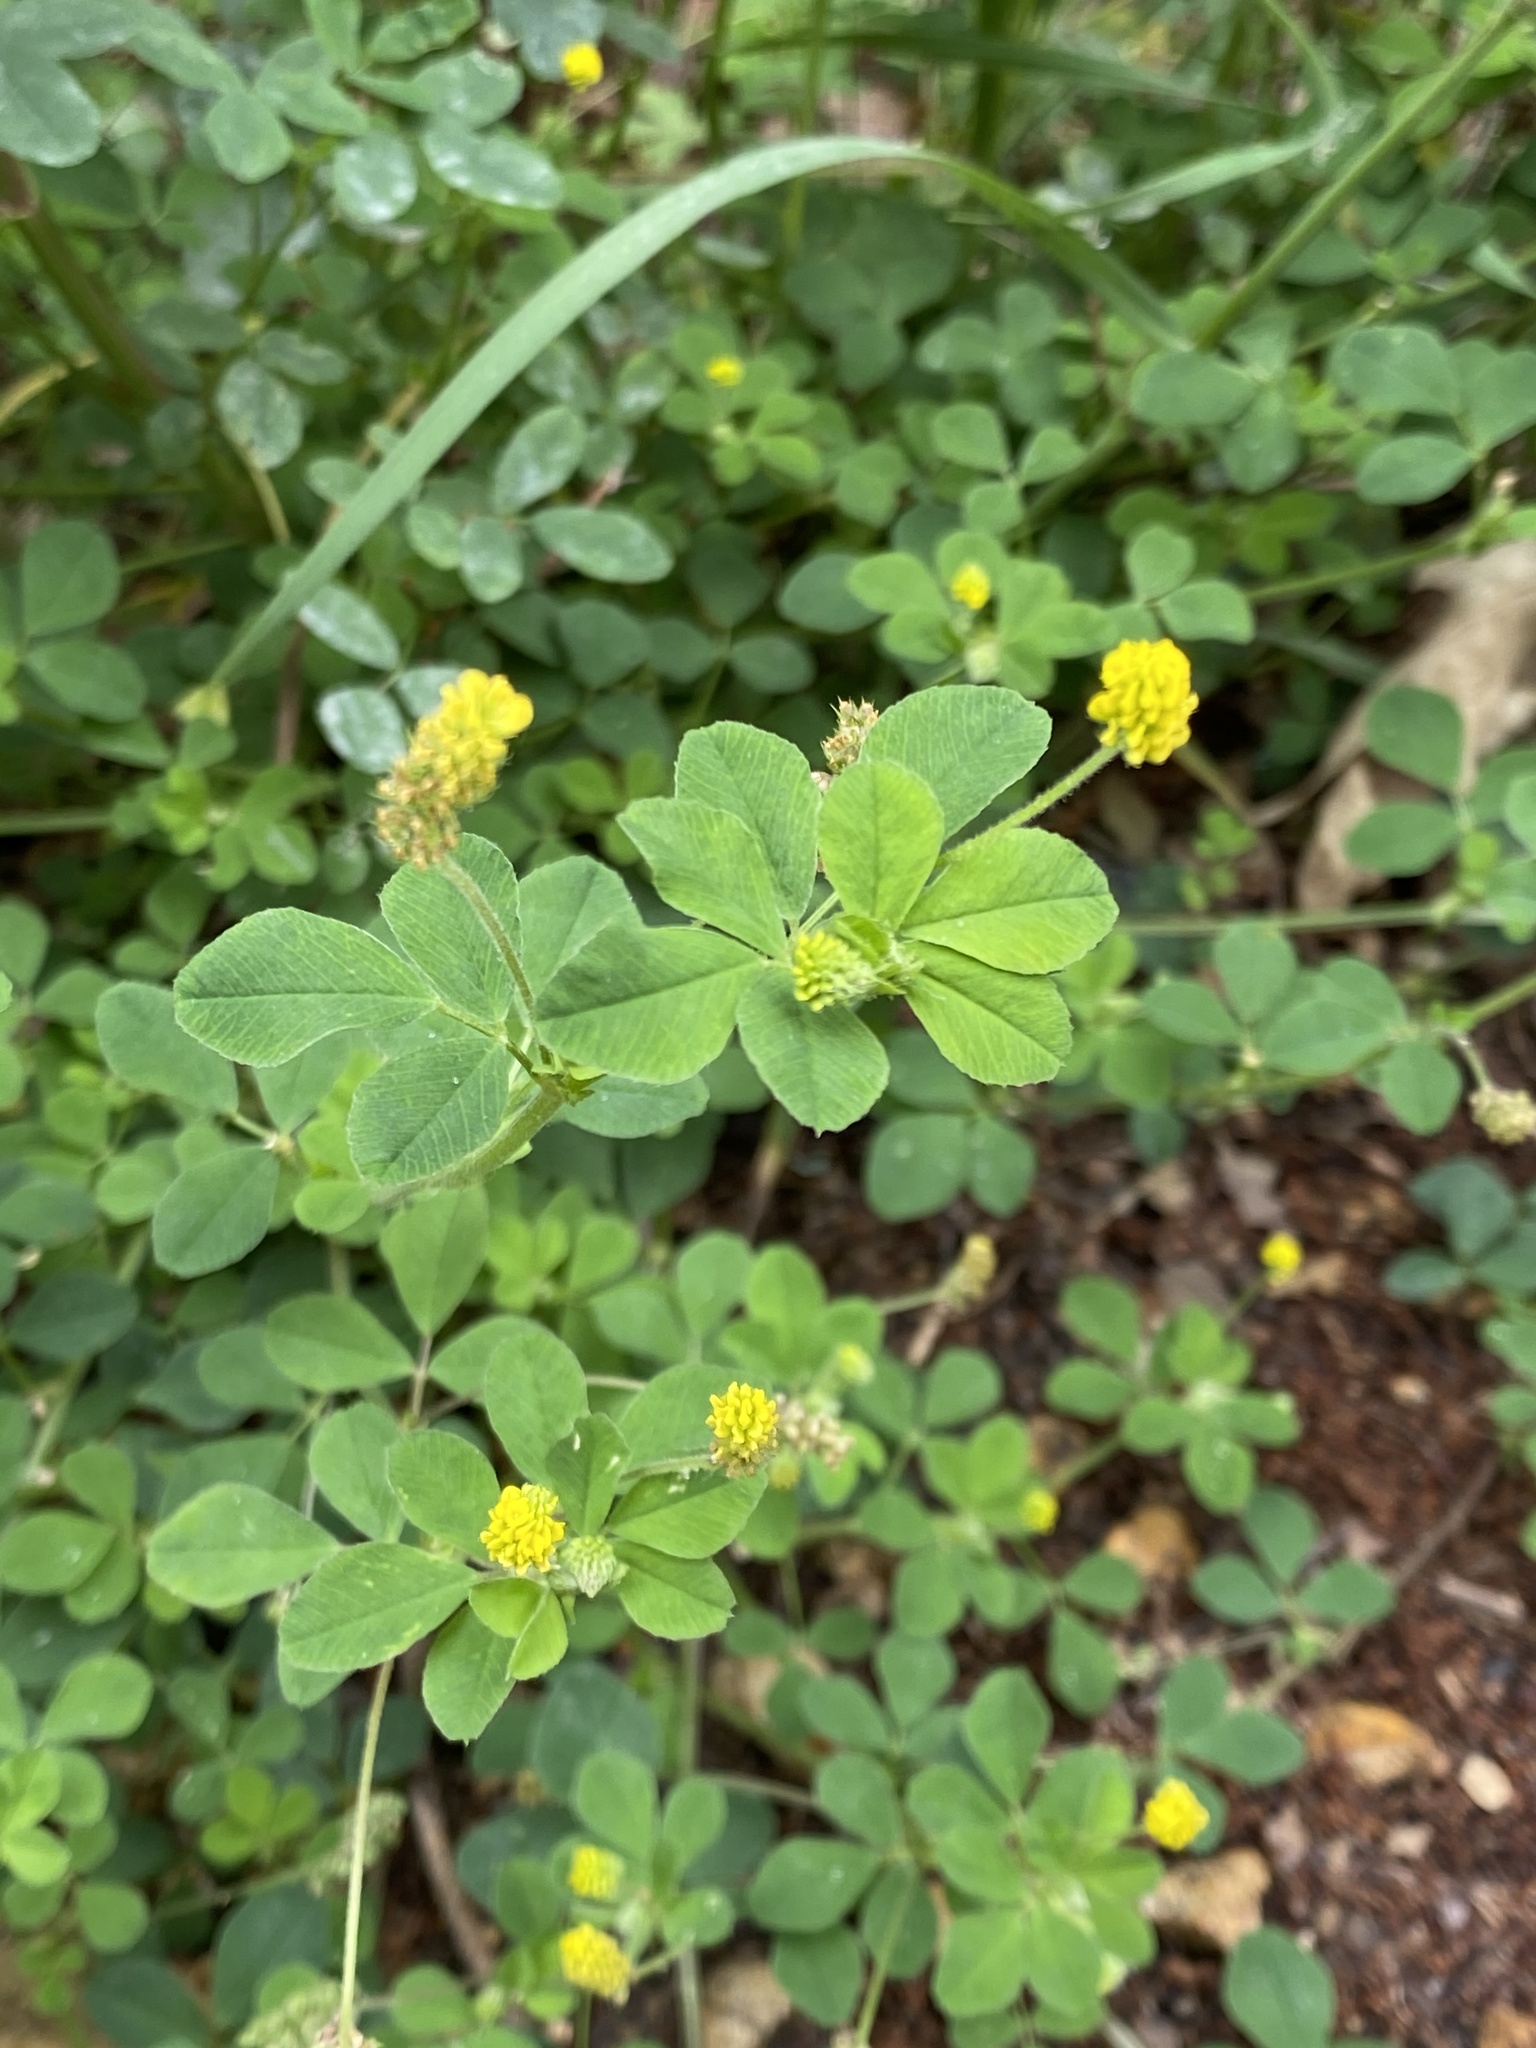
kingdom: Plantae
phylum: Tracheophyta
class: Magnoliopsida
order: Fabales
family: Fabaceae
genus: Medicago
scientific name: Medicago lupulina
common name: Black medick
